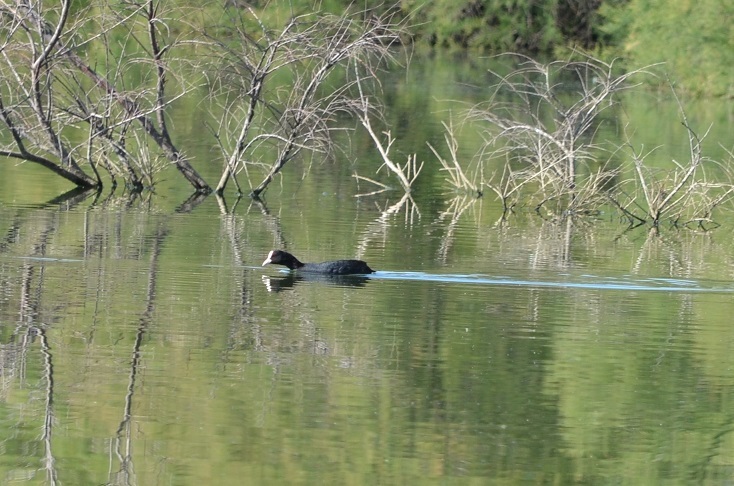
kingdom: Animalia
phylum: Chordata
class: Aves
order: Gruiformes
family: Rallidae
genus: Fulica
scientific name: Fulica atra
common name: Eurasian coot
